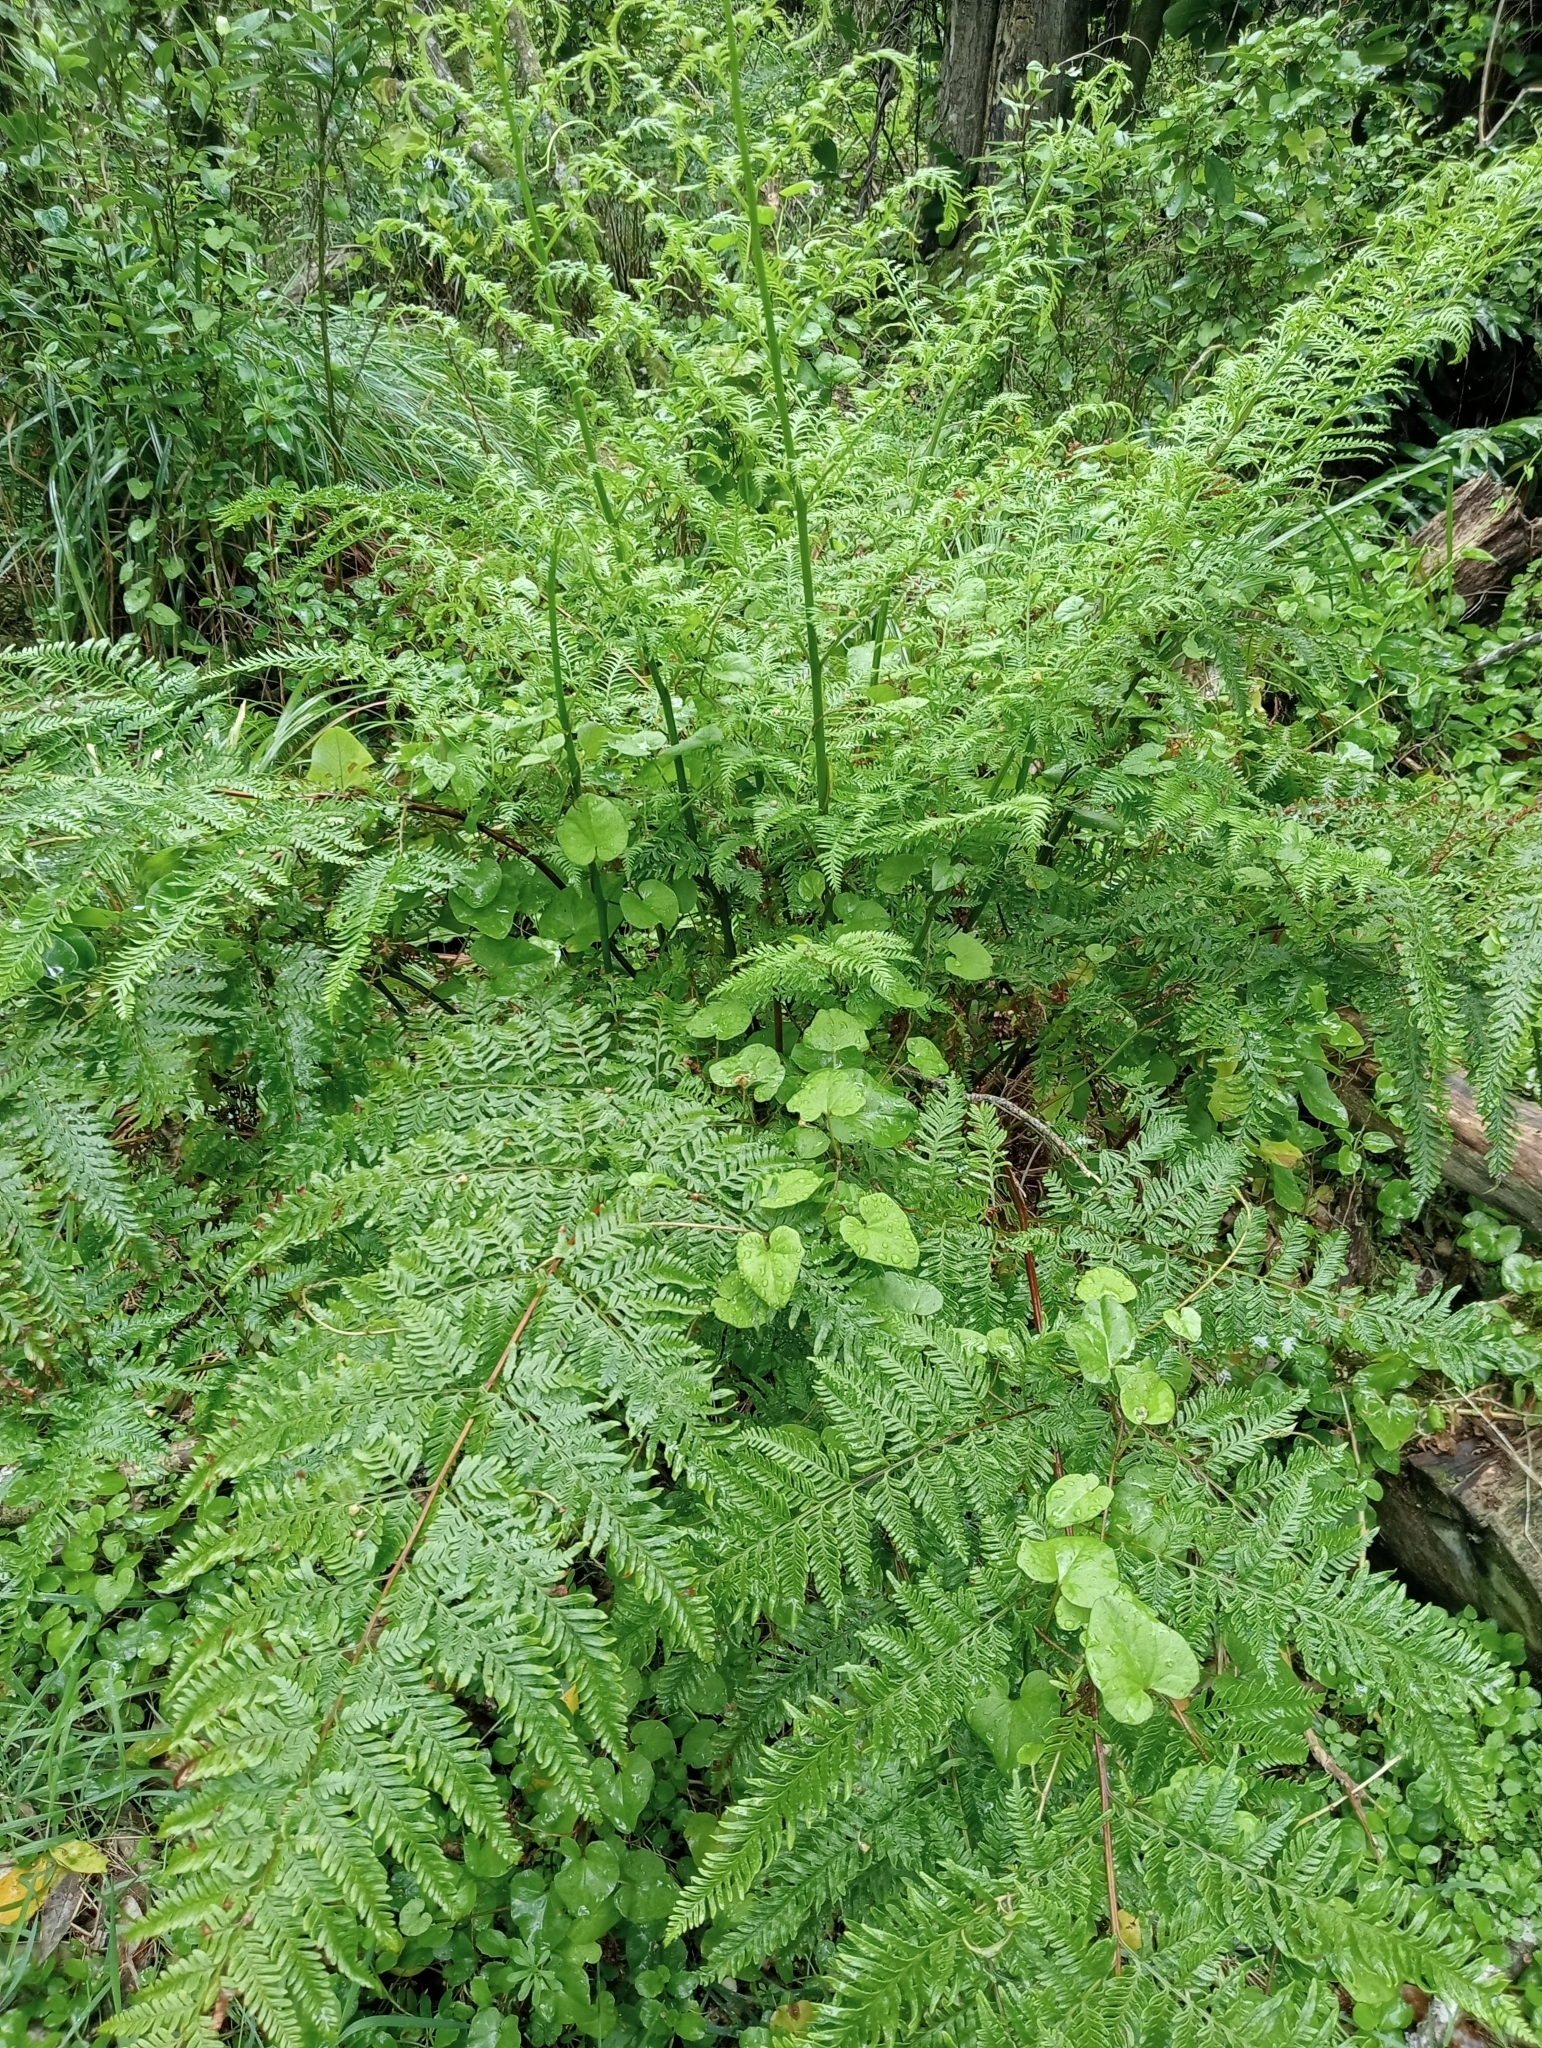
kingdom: Plantae
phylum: Tracheophyta
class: Polypodiopsida
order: Polypodiales
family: Pteridaceae
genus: Pteris
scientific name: Pteris tremula
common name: Australian brake
